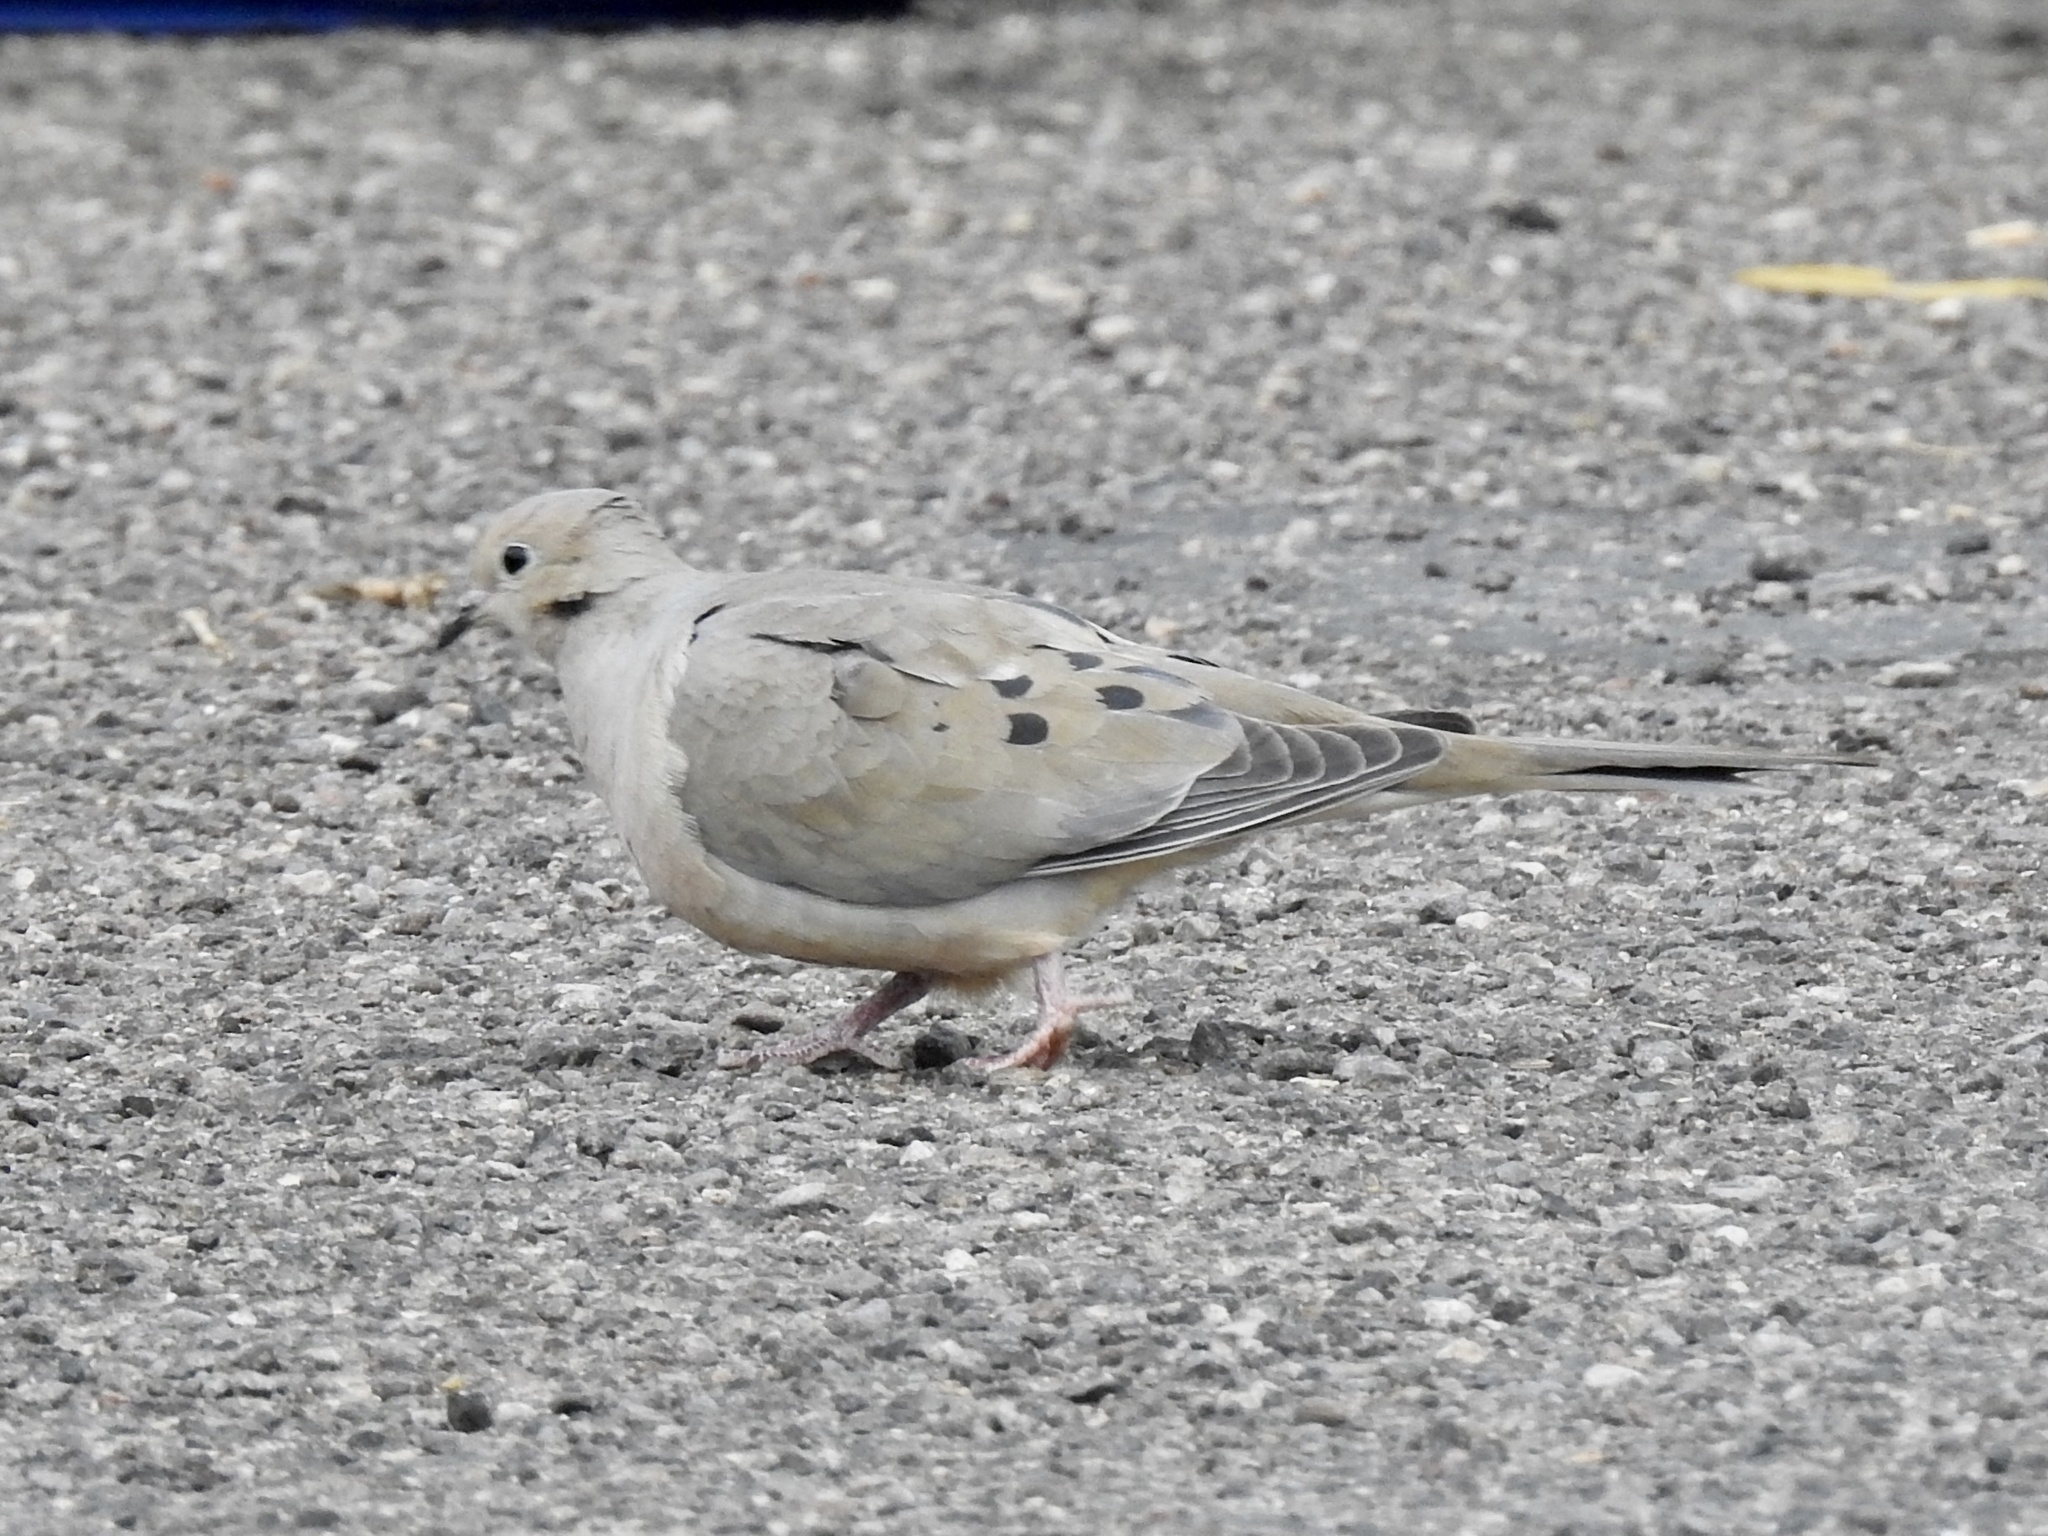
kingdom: Animalia
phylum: Chordata
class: Aves
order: Columbiformes
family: Columbidae
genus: Zenaida
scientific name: Zenaida macroura
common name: Mourning dove
